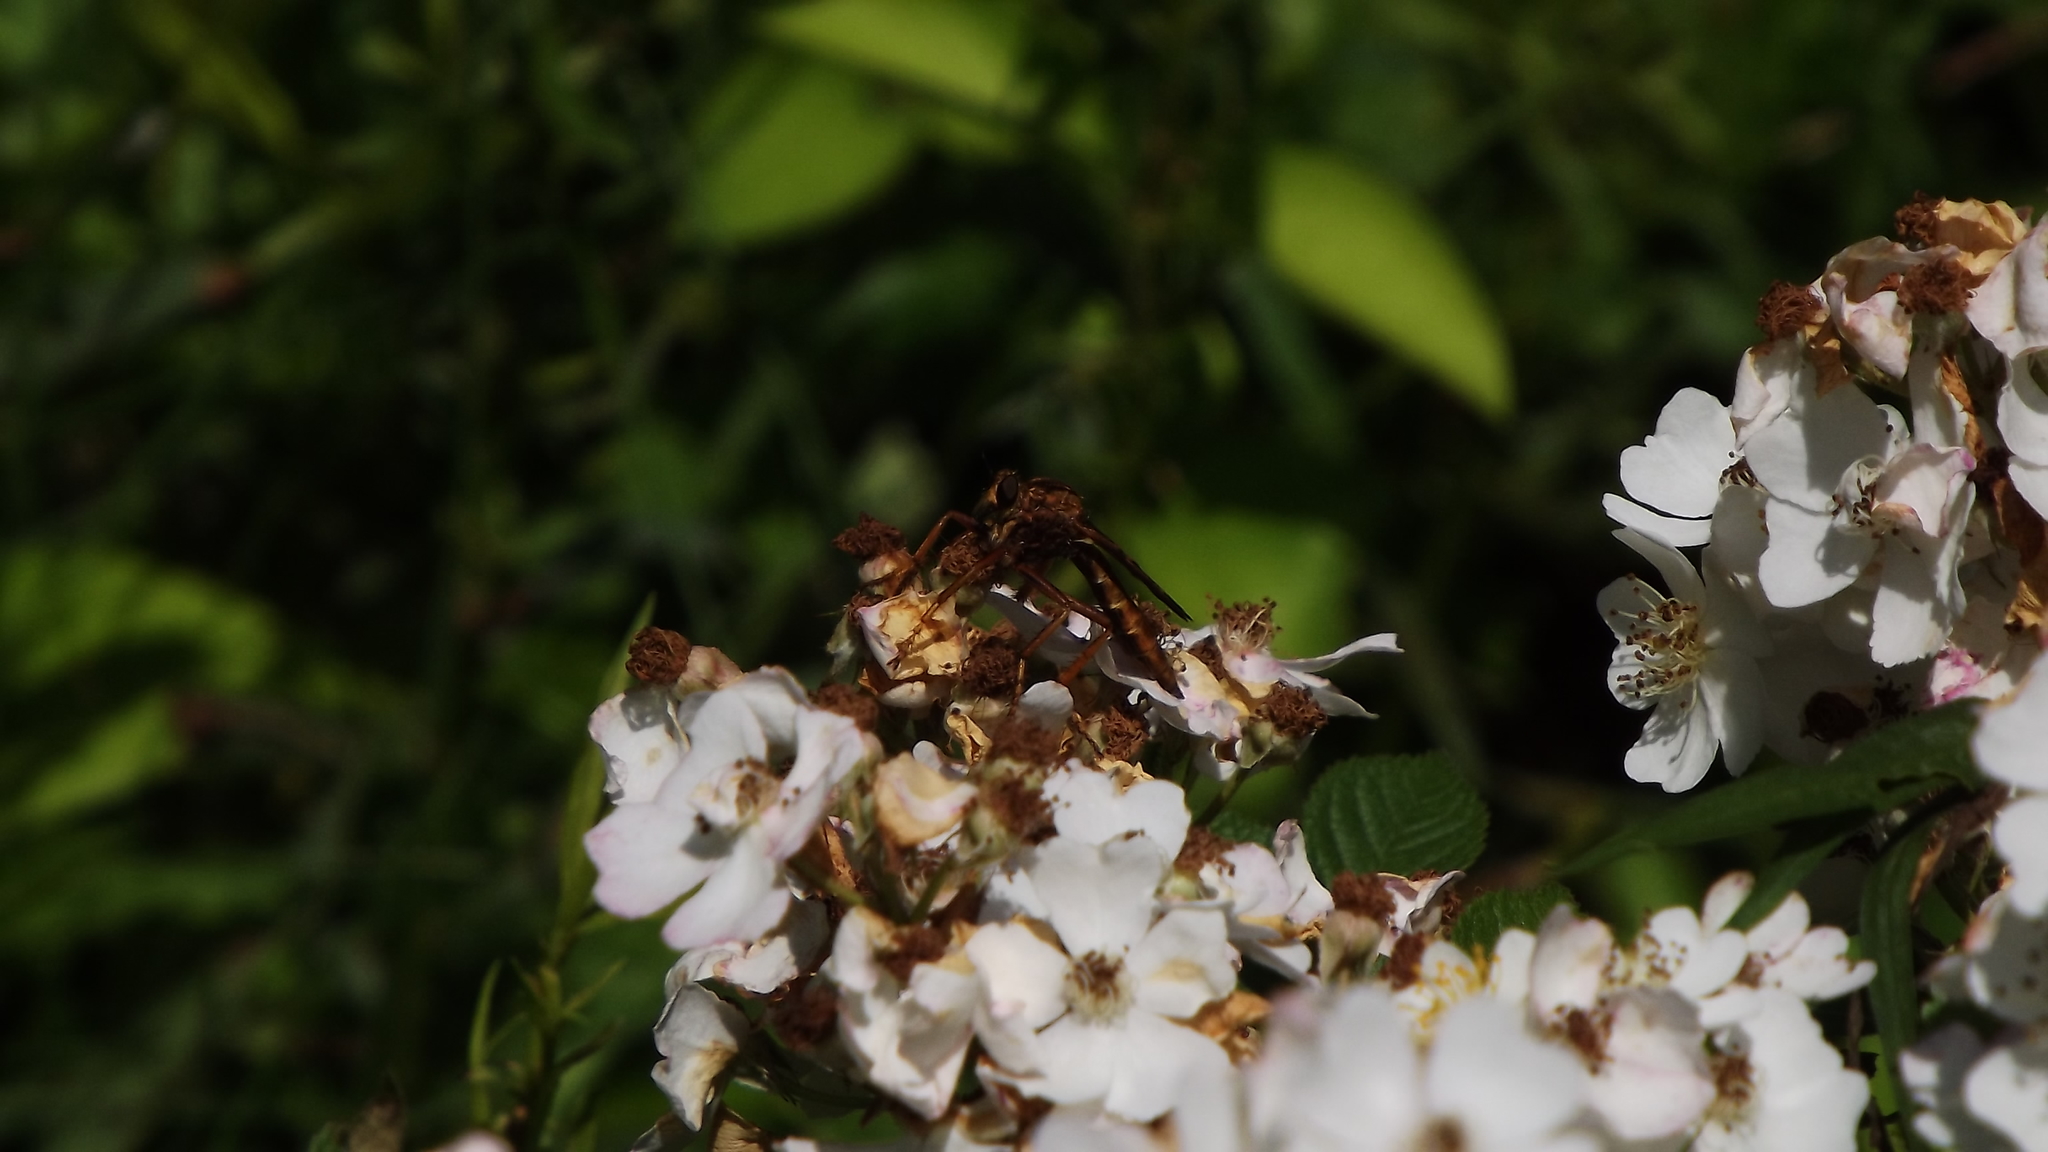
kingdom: Animalia
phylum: Arthropoda
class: Insecta
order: Diptera
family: Asilidae
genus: Asilus
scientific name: Asilus sericeus
